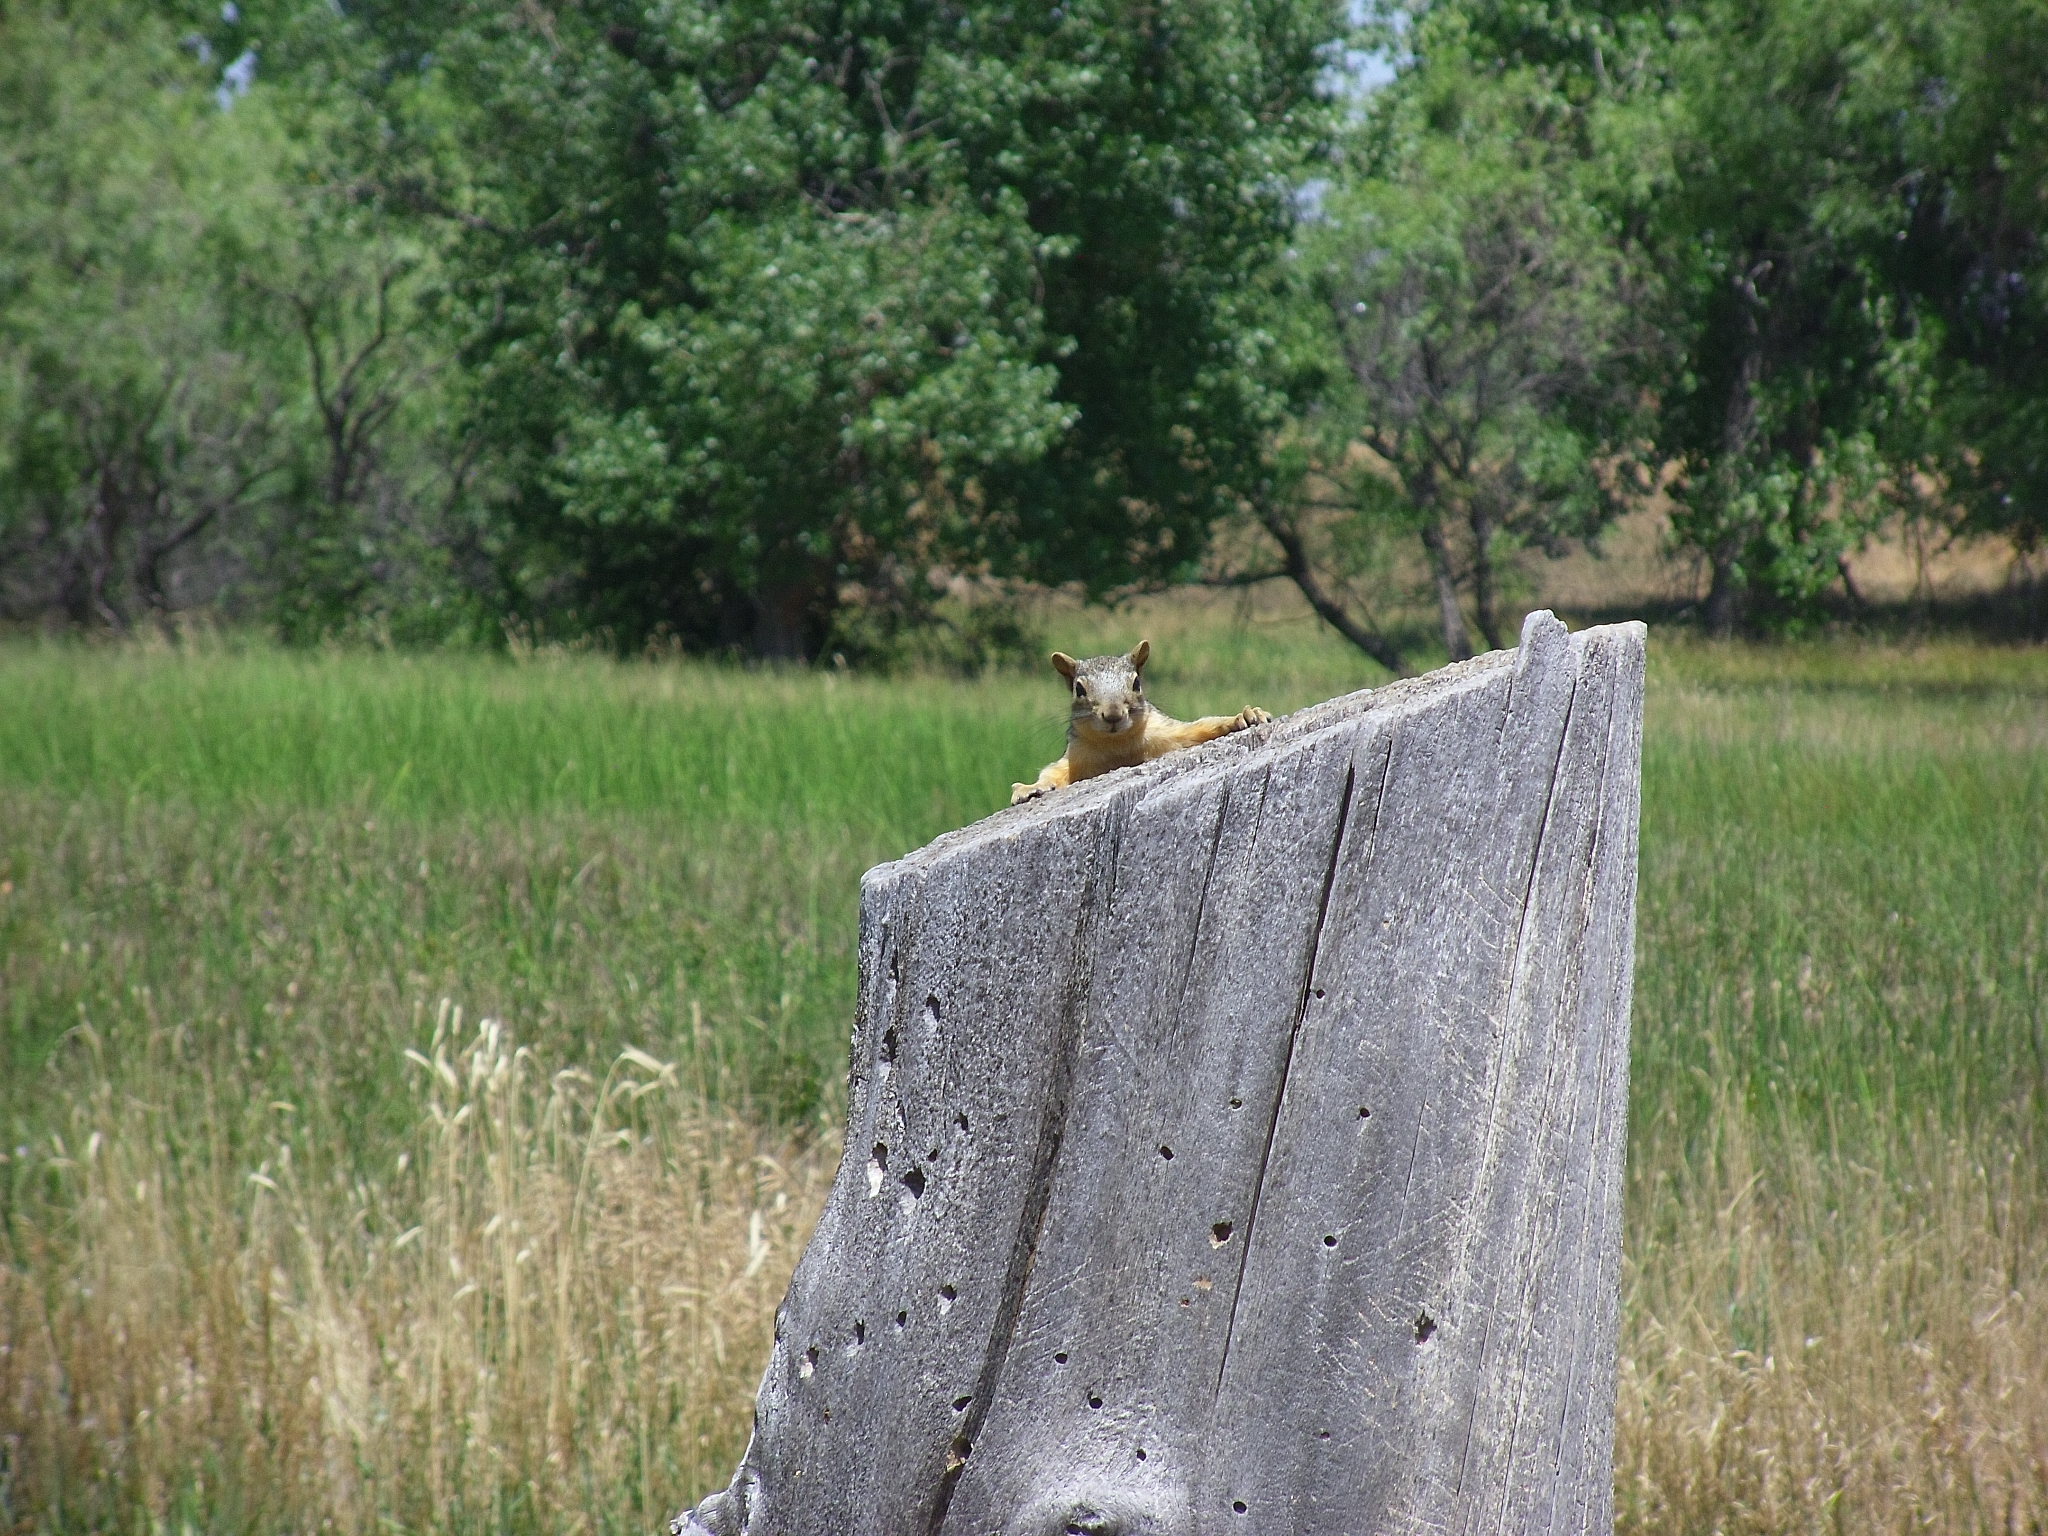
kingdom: Animalia
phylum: Chordata
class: Mammalia
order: Rodentia
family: Sciuridae
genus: Sciurus
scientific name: Sciurus niger
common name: Fox squirrel
